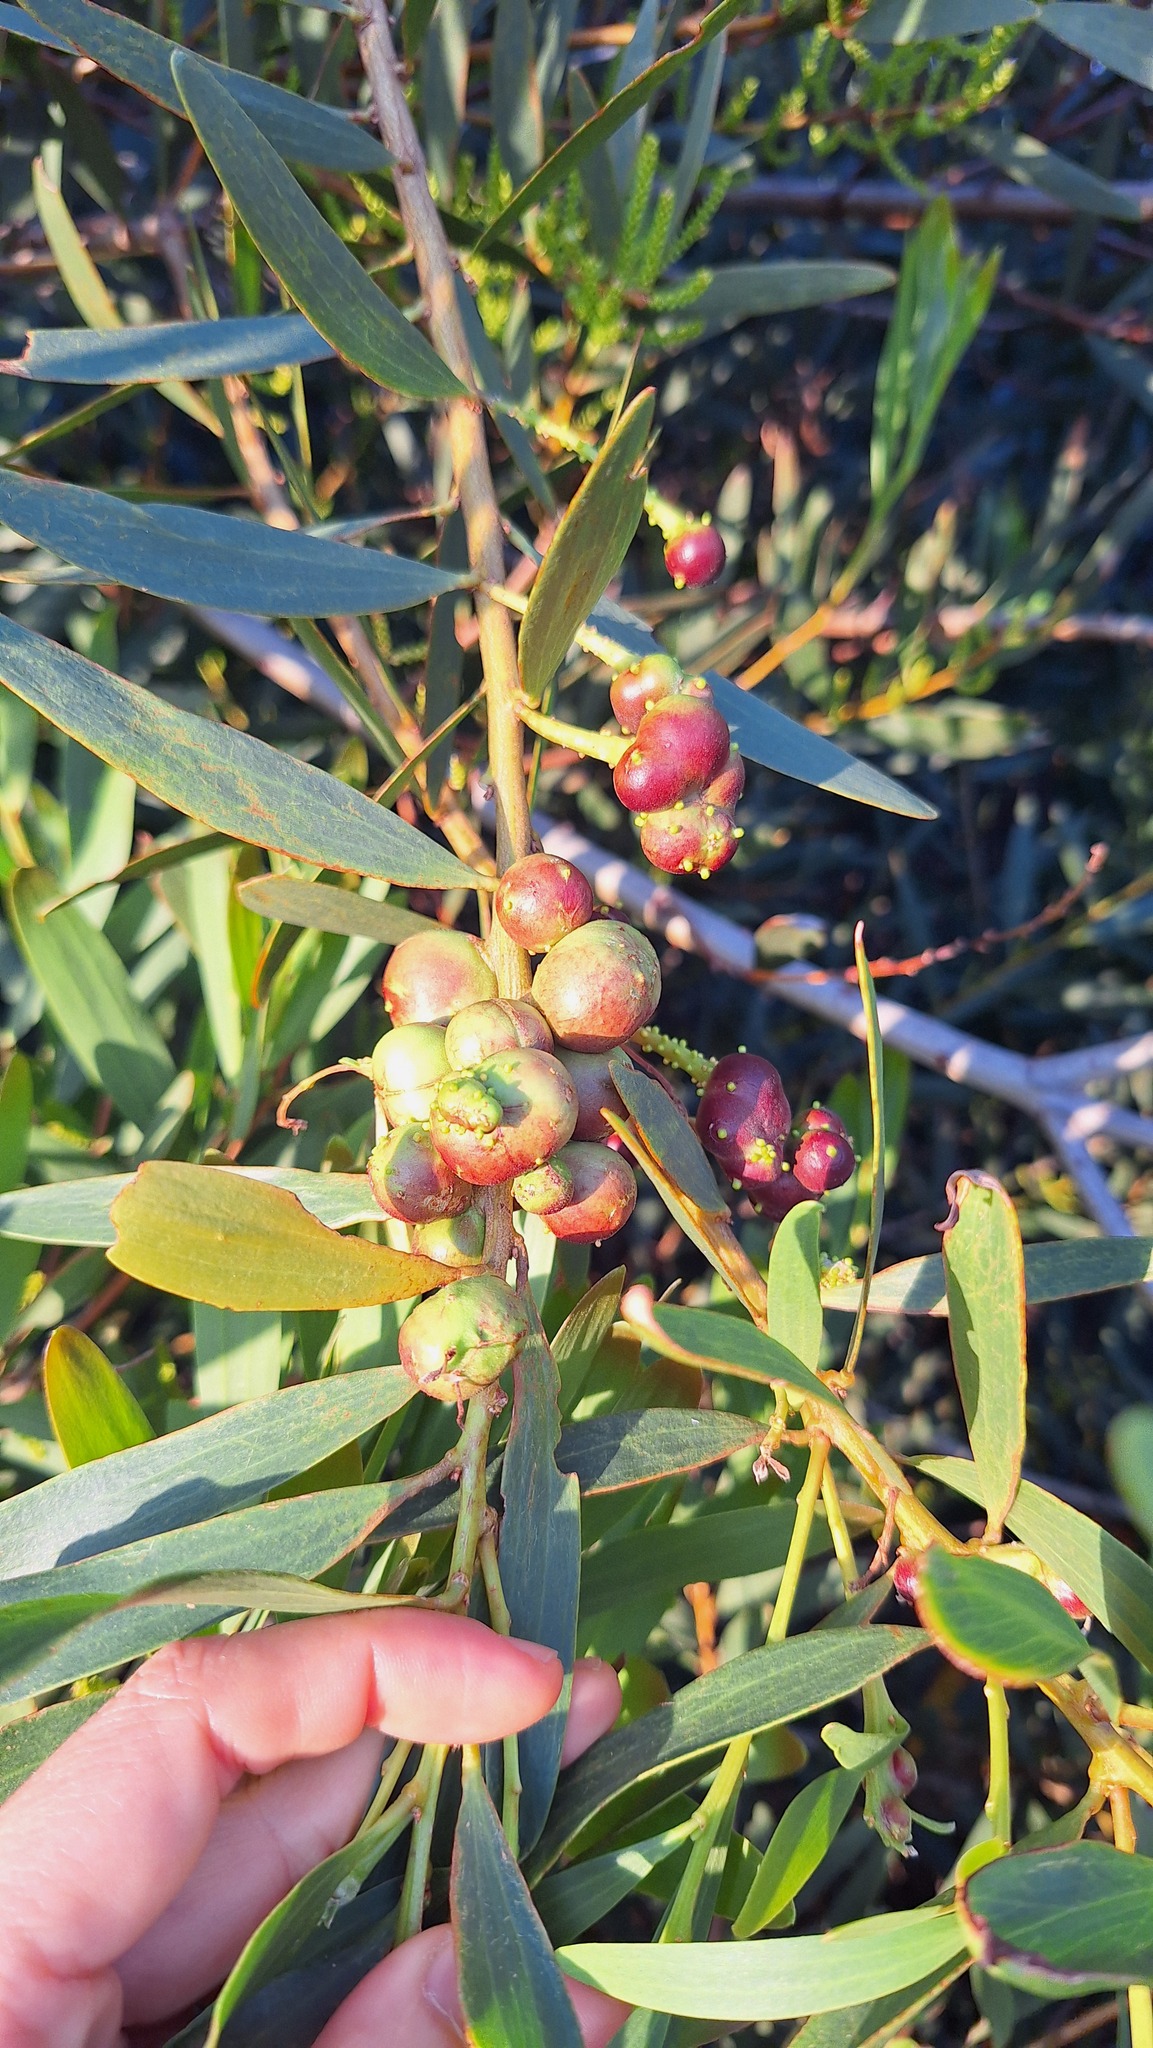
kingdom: Animalia
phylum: Arthropoda
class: Insecta
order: Hymenoptera
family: Pteromalidae
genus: Trichilogaster
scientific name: Trichilogaster acaciaelongifoliae
